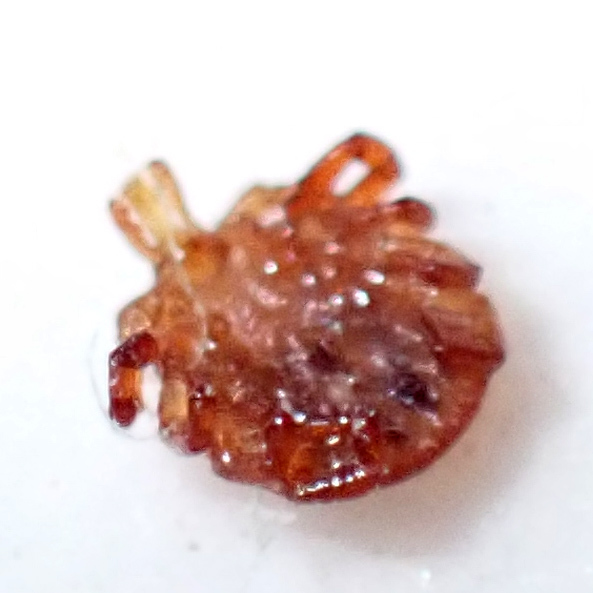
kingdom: Animalia
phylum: Arthropoda
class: Arachnida
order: Ixodida
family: Ixodidae
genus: Amblyomma
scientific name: Amblyomma americanum
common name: Lone star tick
